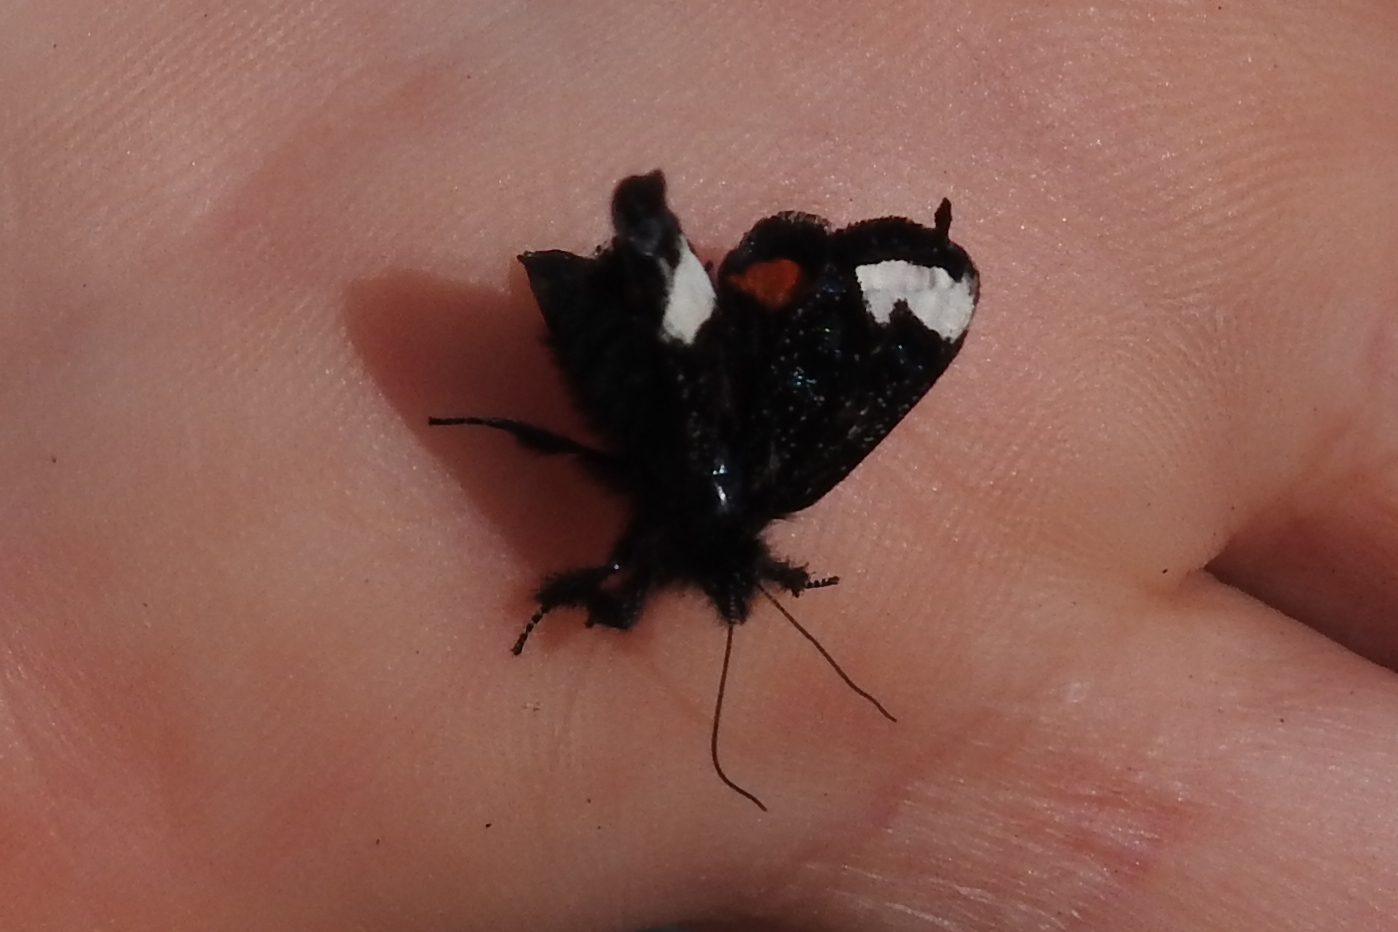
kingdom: Animalia
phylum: Arthropoda
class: Insecta
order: Lepidoptera
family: Noctuidae
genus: Psychomorpha
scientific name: Psychomorpha epimenis
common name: Grapevine epimenis moth
